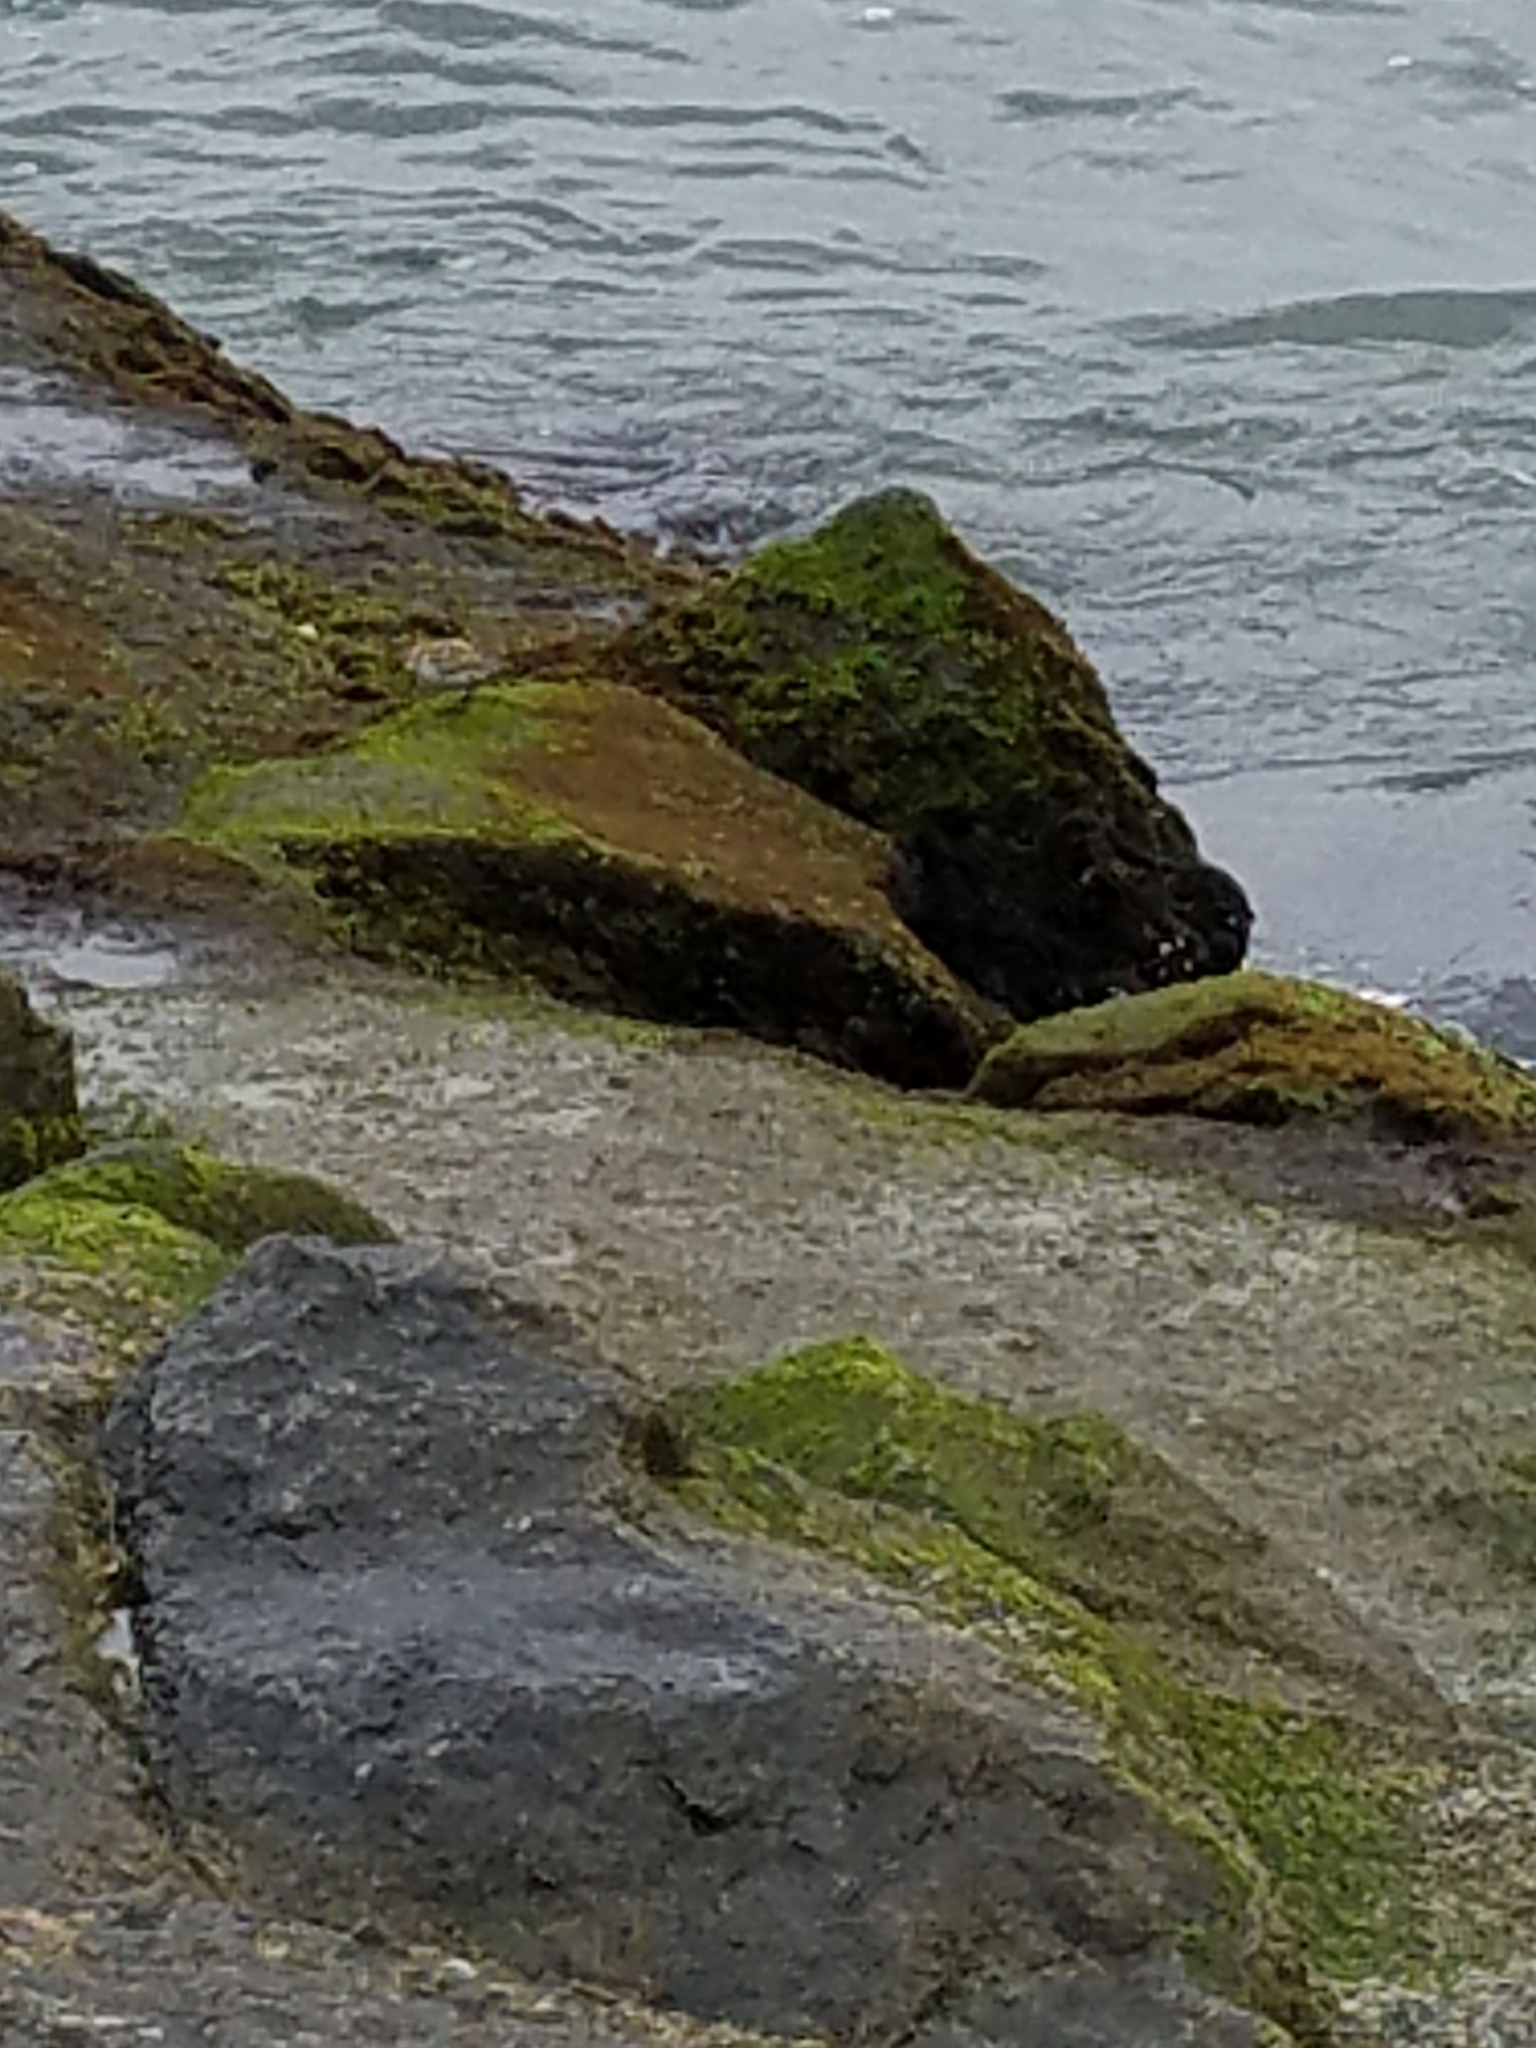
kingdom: Animalia
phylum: Chordata
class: Aves
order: Charadriiformes
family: Scolopacidae
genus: Calidris
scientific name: Calidris mauri
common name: Western sandpiper
